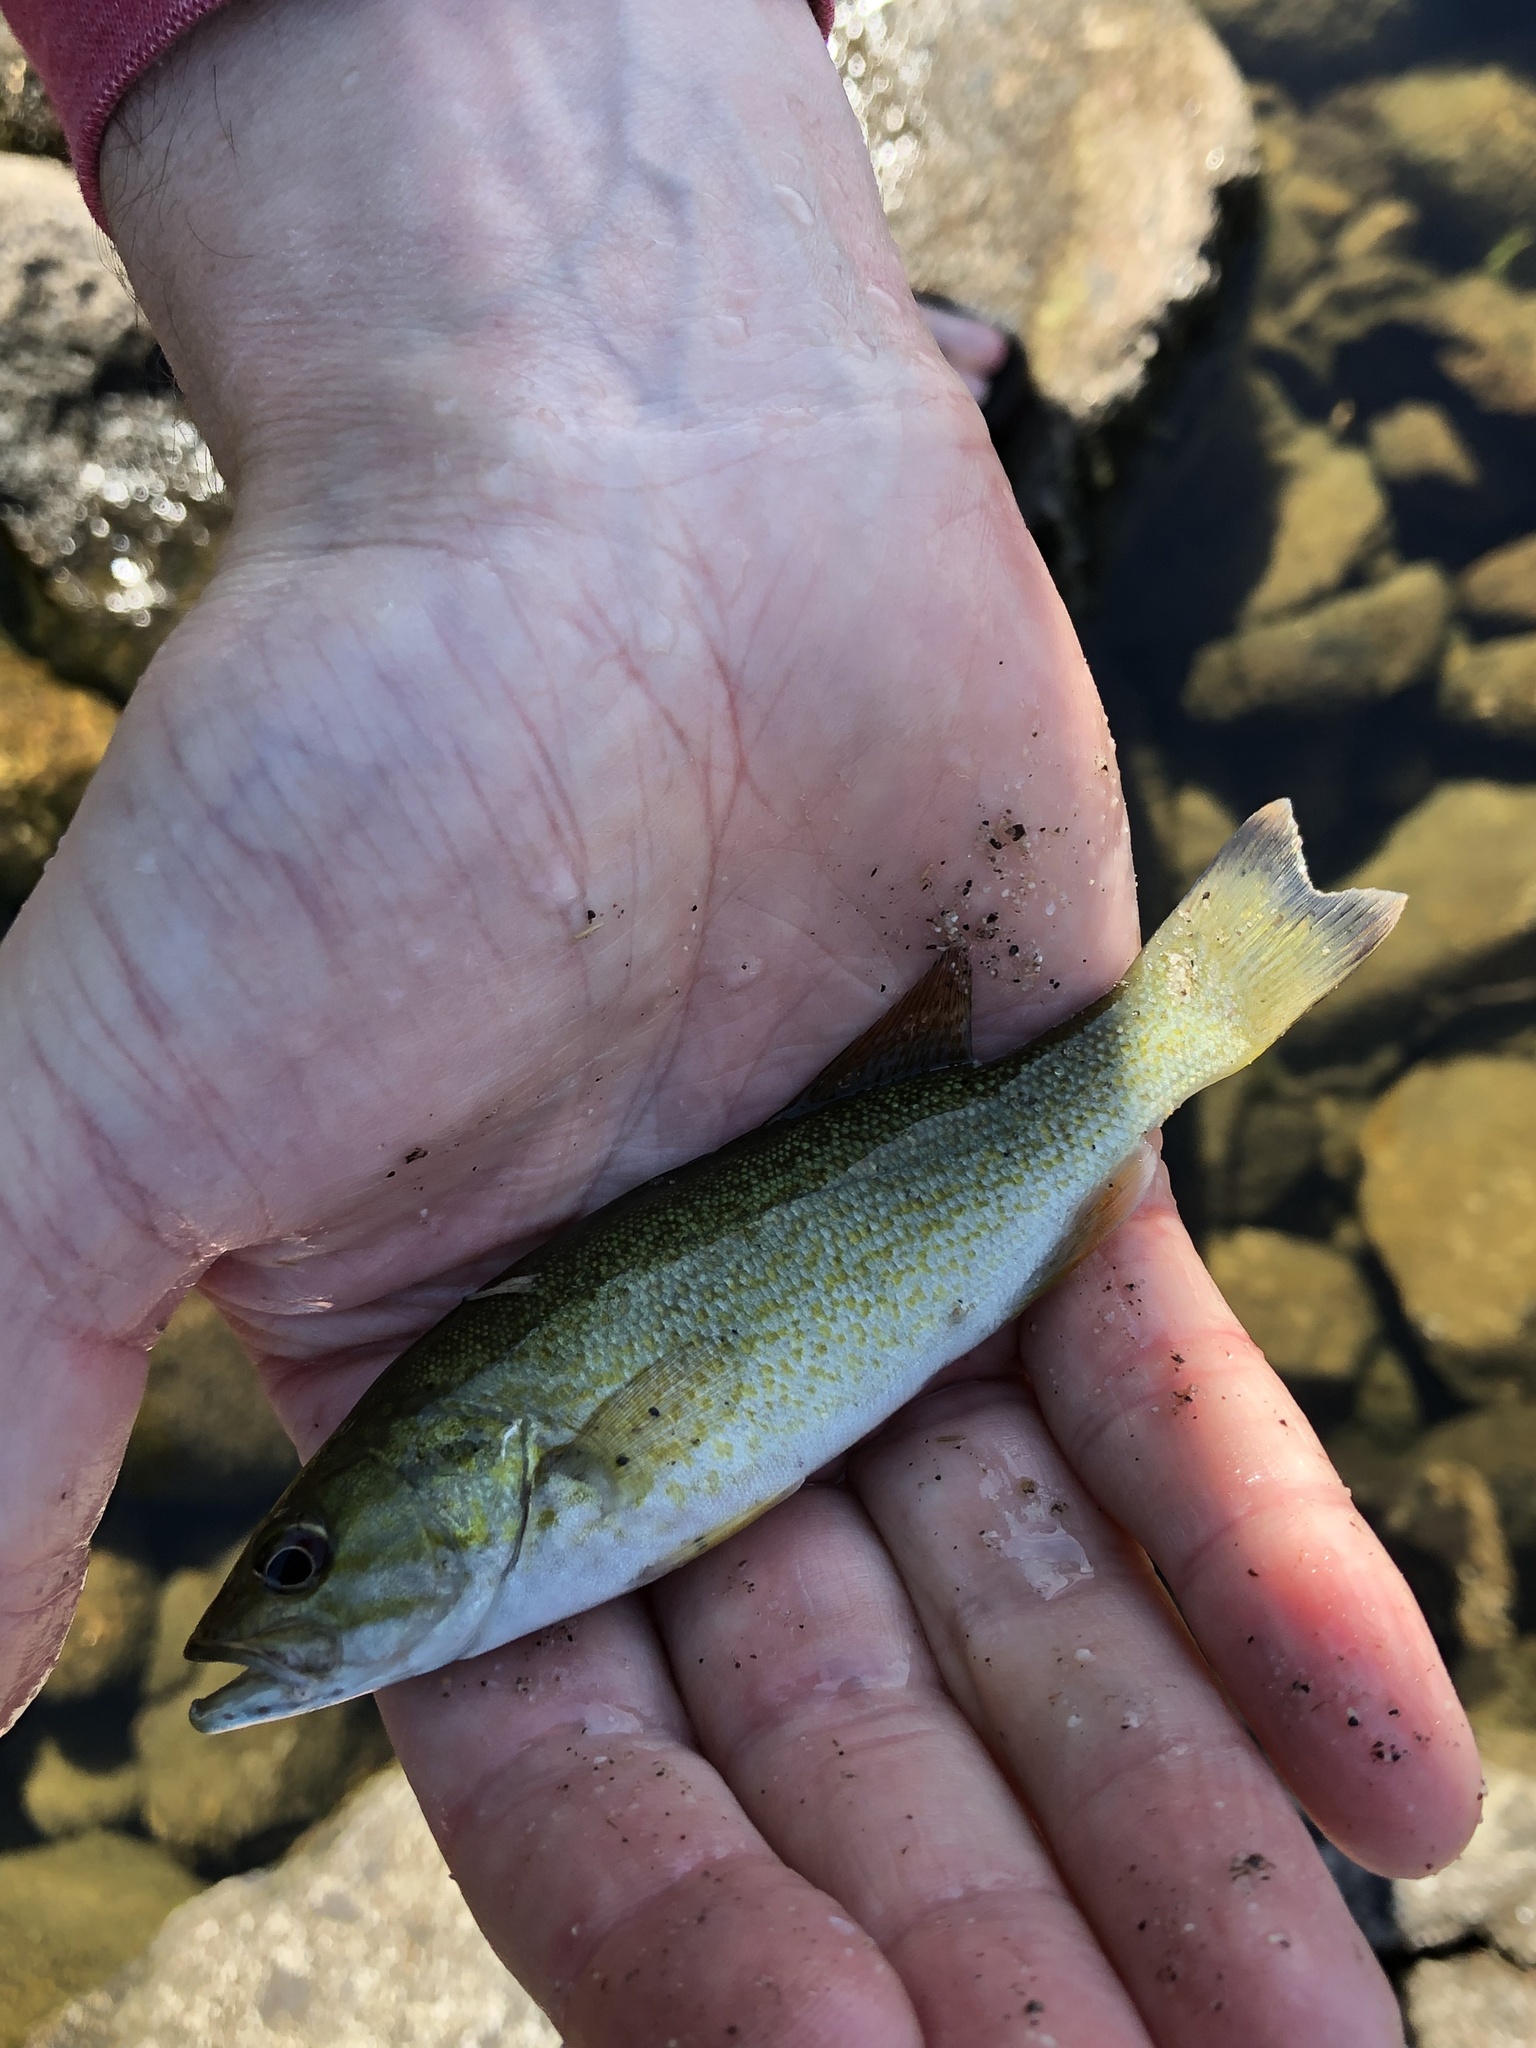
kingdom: Animalia
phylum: Chordata
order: Perciformes
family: Centrarchidae
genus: Micropterus
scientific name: Micropterus dolomieu
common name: Smallmouth bass
